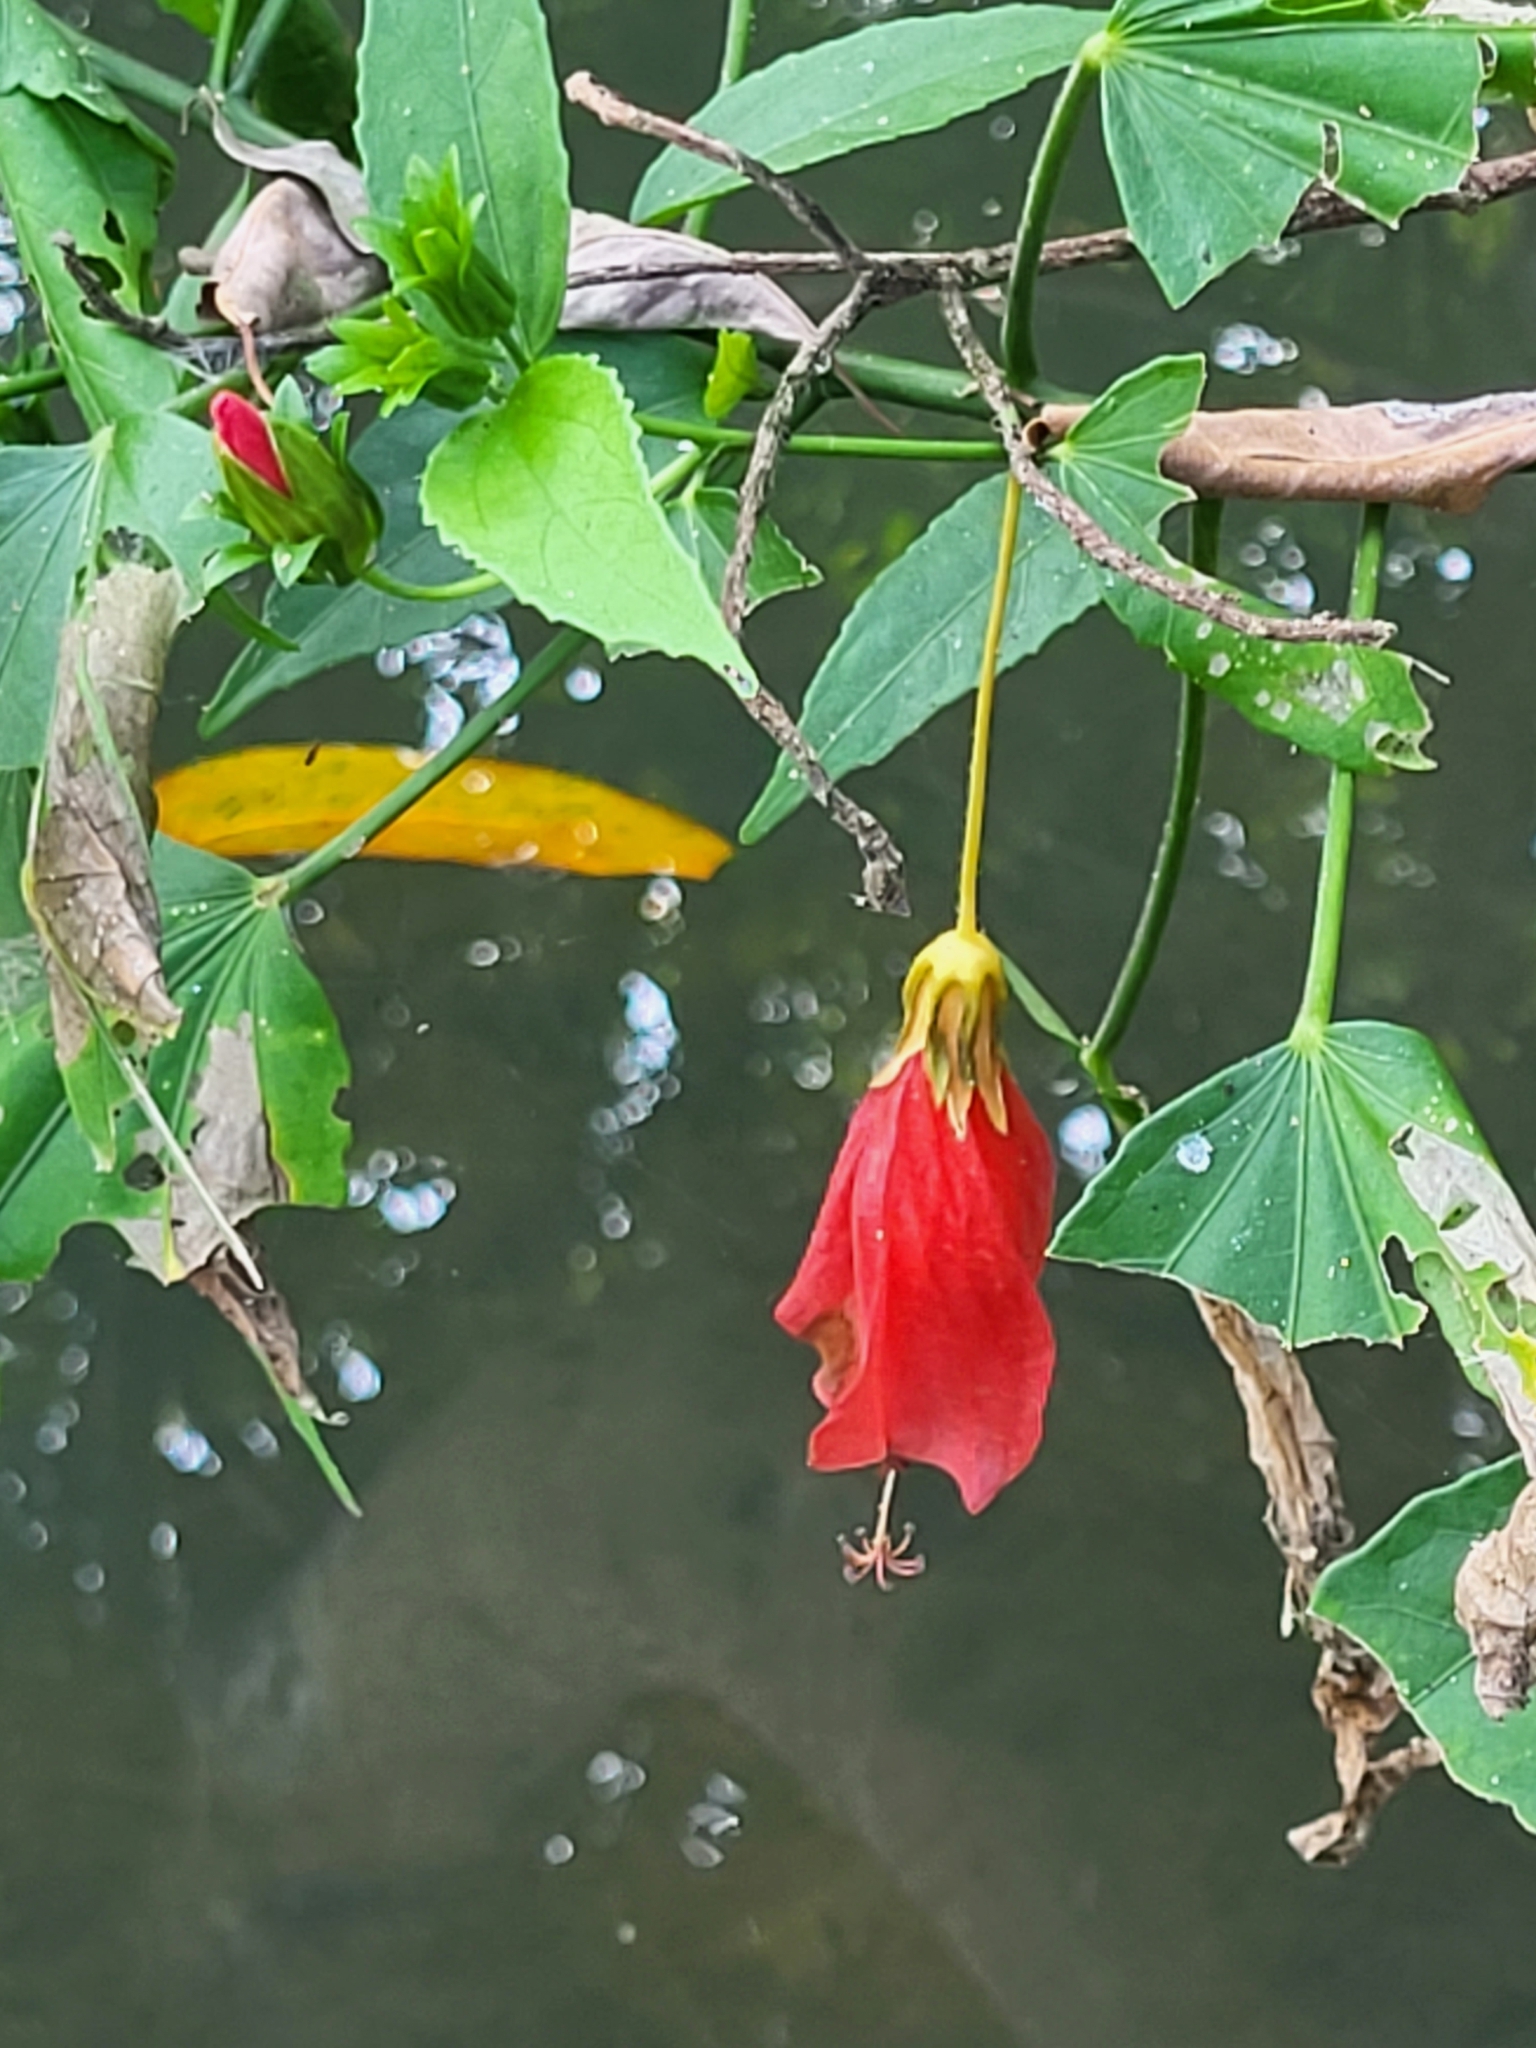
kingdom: Plantae
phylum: Tracheophyta
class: Magnoliopsida
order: Malvales
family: Malvaceae
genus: Malvaviscus
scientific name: Malvaviscus penduliflorus
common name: Mazapan
